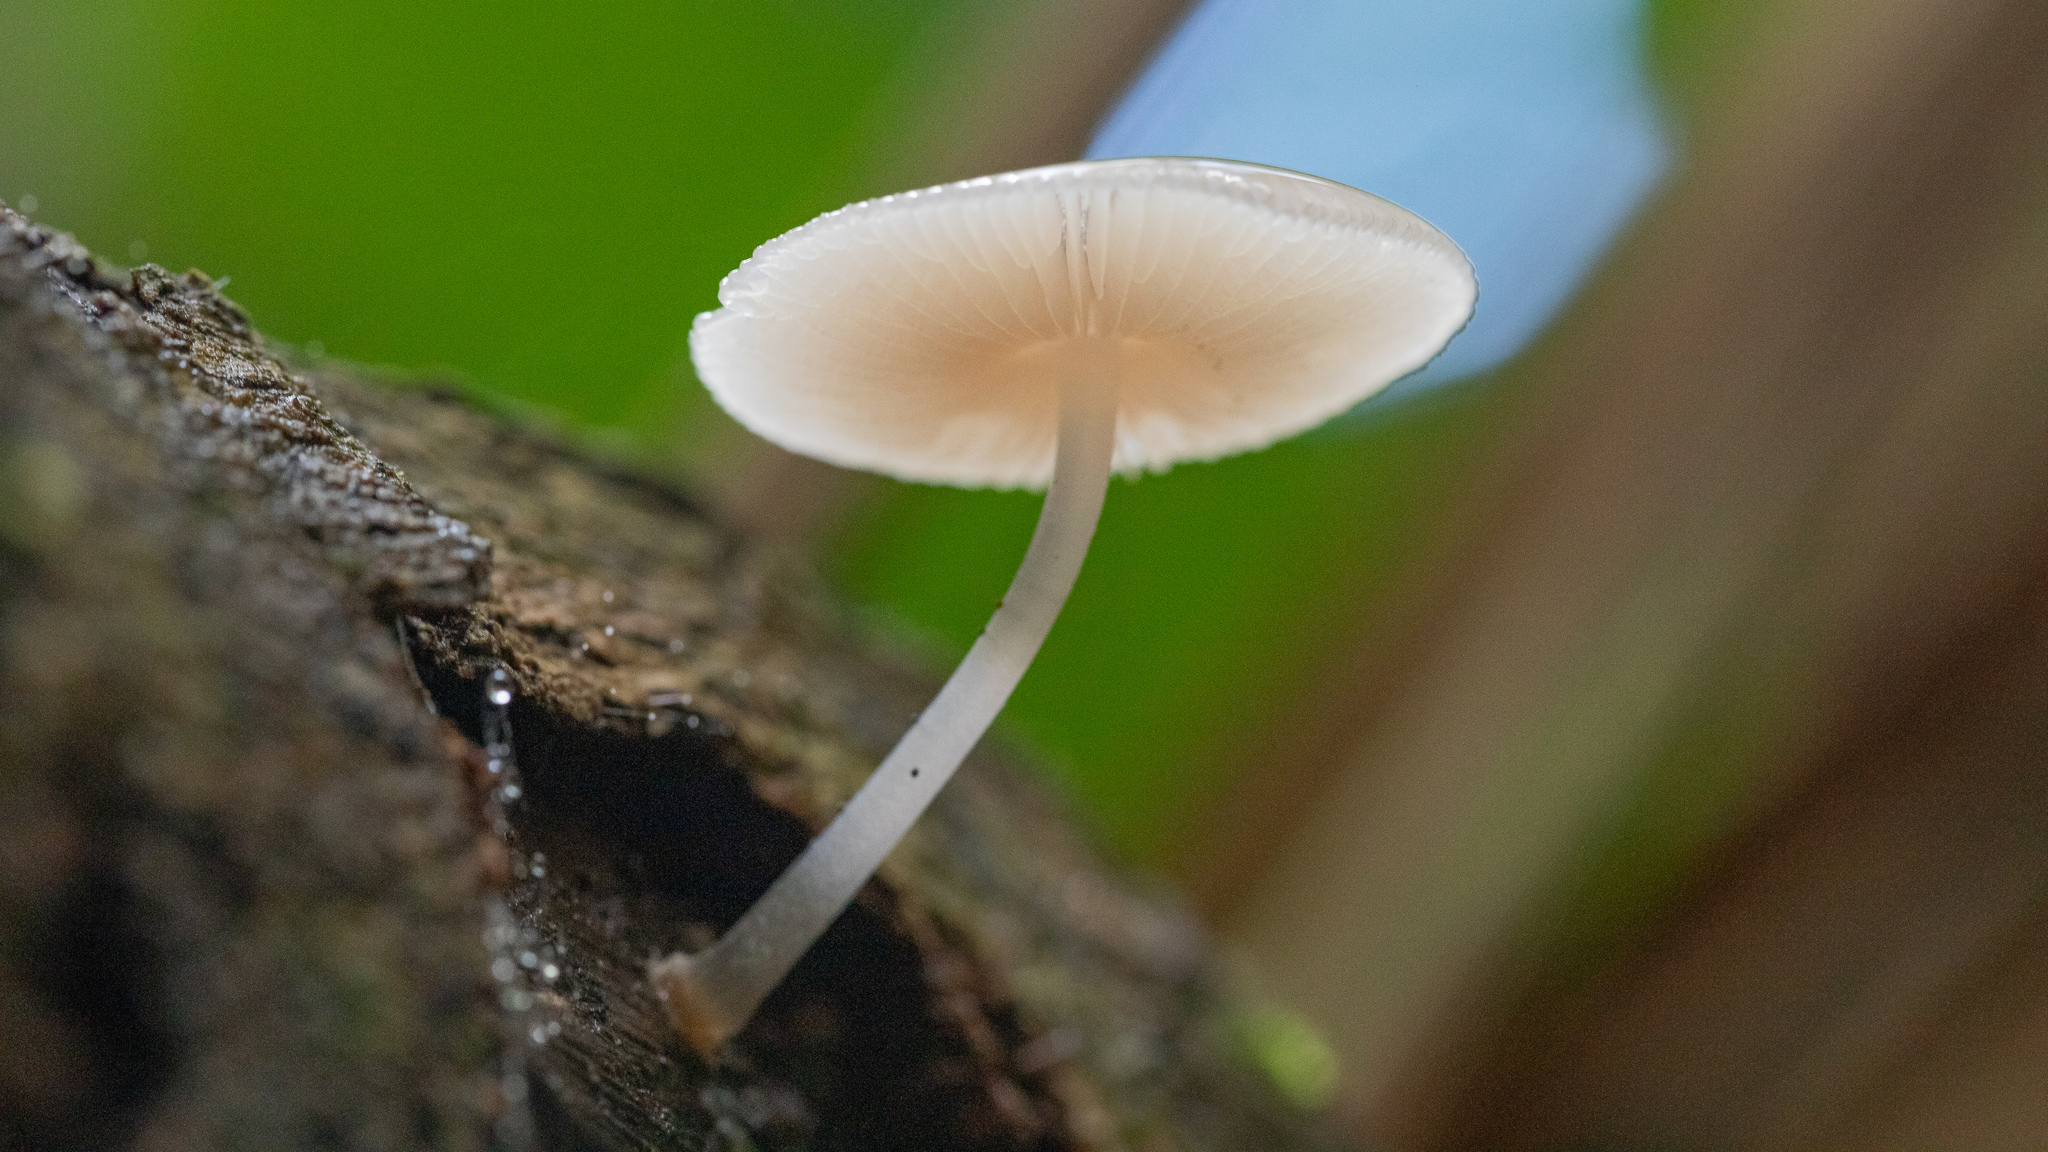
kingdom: Fungi
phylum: Basidiomycota
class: Agaricomycetes
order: Agaricales
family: Mycenaceae
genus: Mycena
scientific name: Mycena margarita
